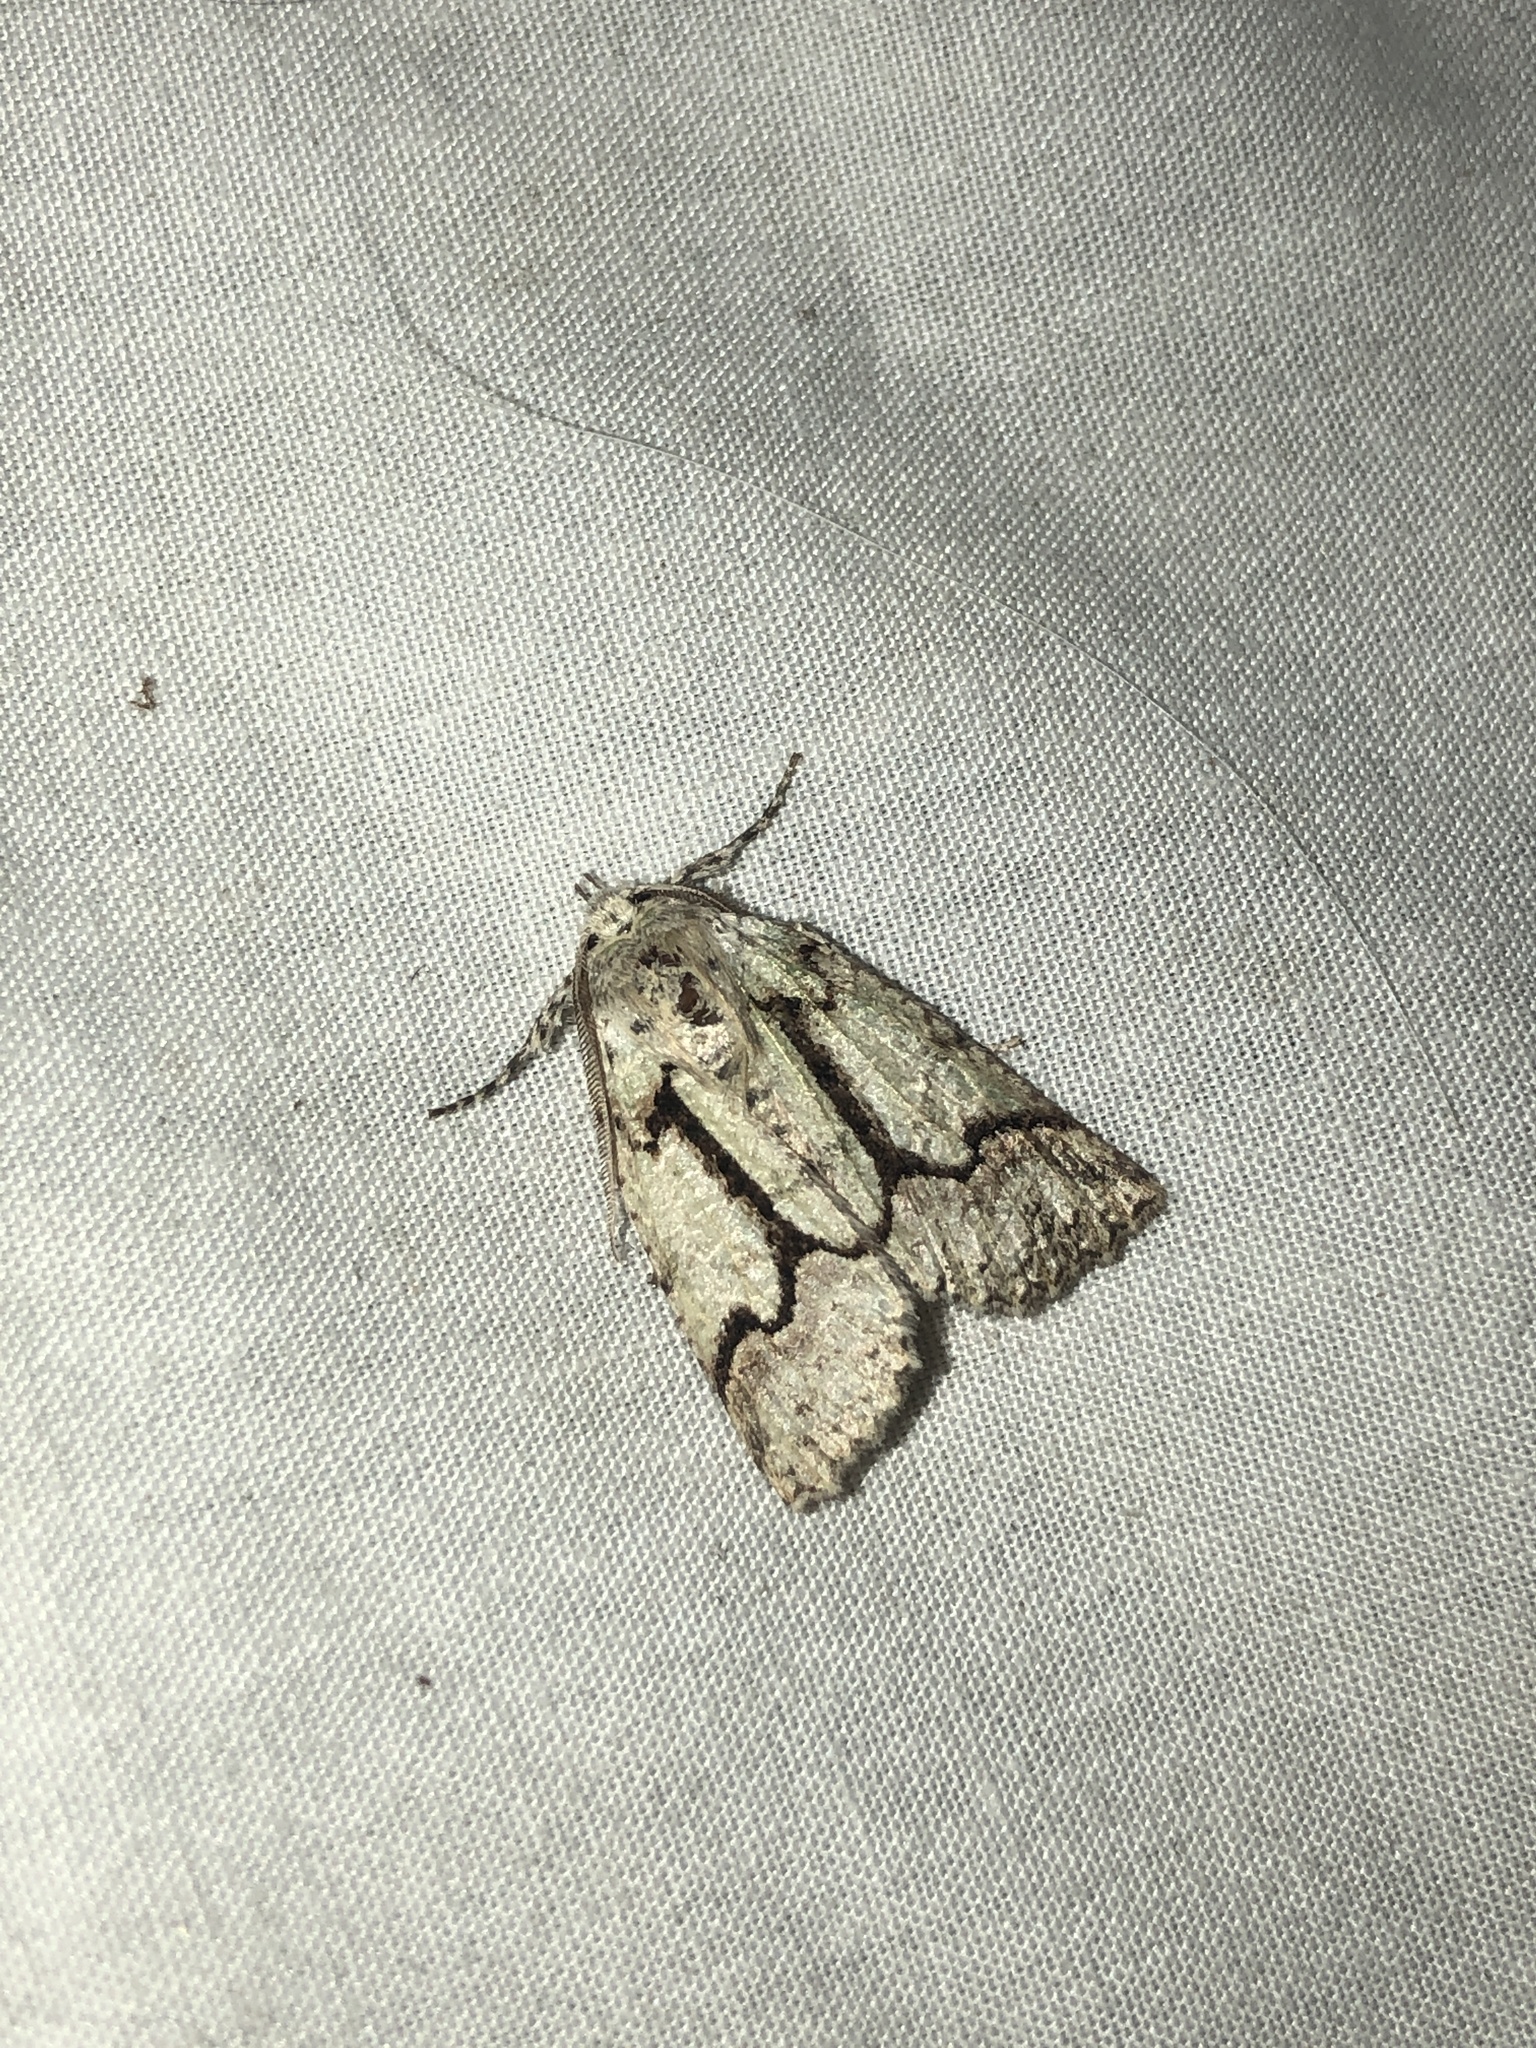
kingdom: Animalia
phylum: Arthropoda
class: Insecta
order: Lepidoptera
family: Geometridae
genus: Declana
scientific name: Declana floccosa
